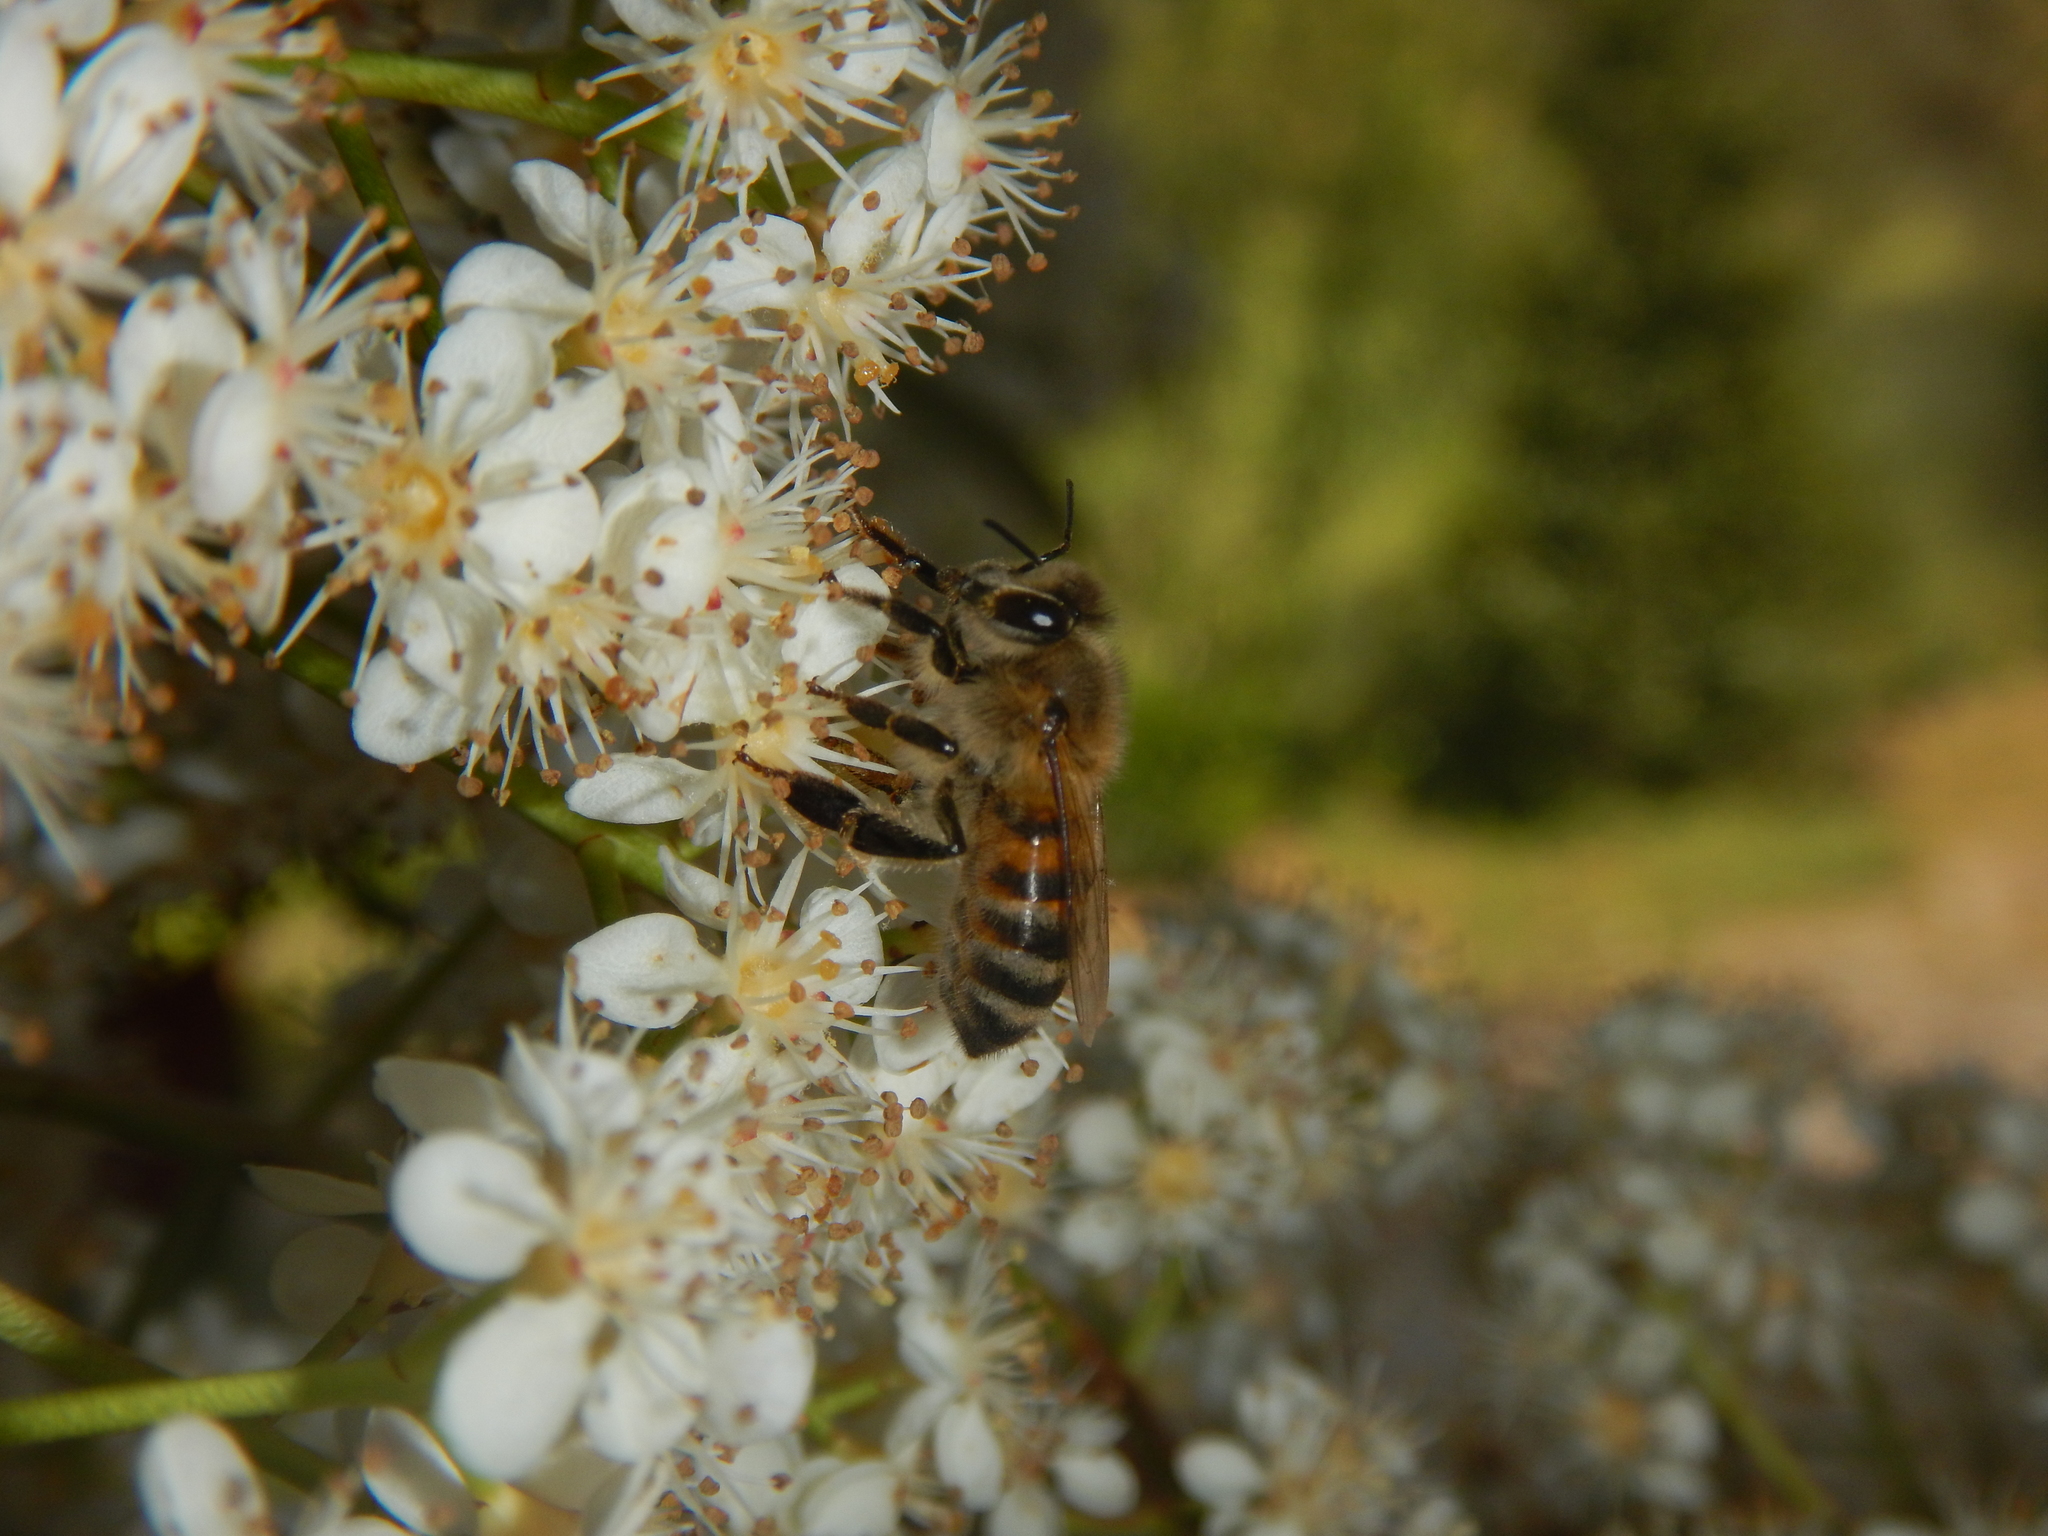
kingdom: Animalia
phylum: Arthropoda
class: Insecta
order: Hymenoptera
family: Apidae
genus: Apis
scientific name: Apis mellifera
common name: Honey bee
